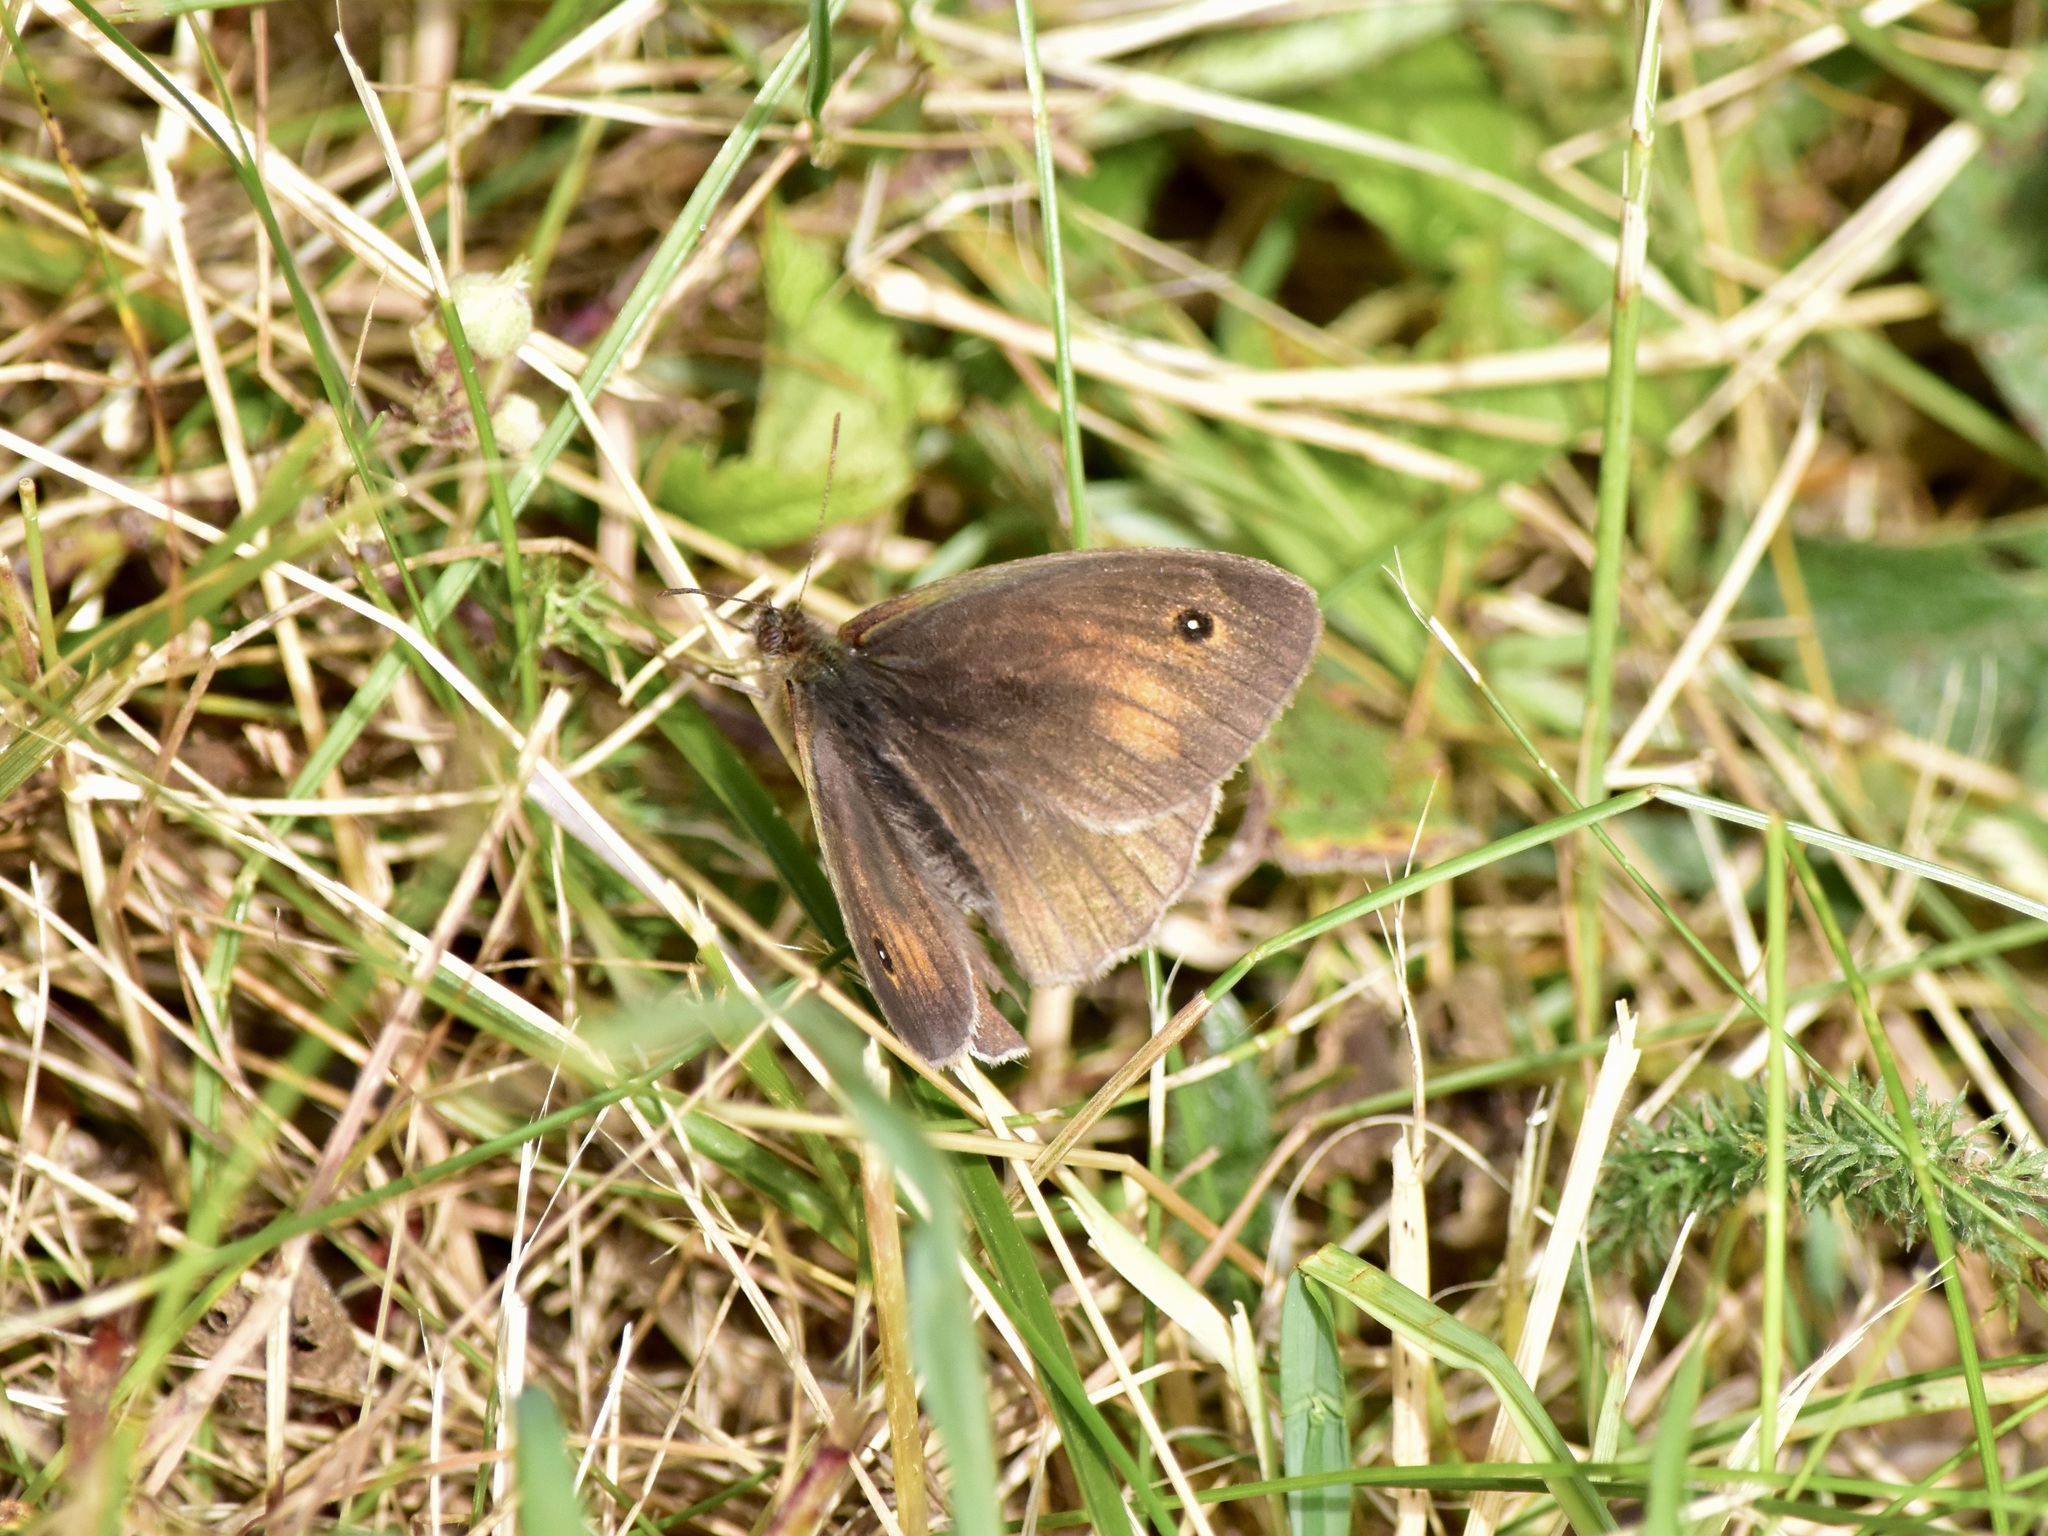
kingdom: Animalia
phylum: Arthropoda
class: Insecta
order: Lepidoptera
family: Nymphalidae
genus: Maniola
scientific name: Maniola jurtina
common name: Meadow brown
